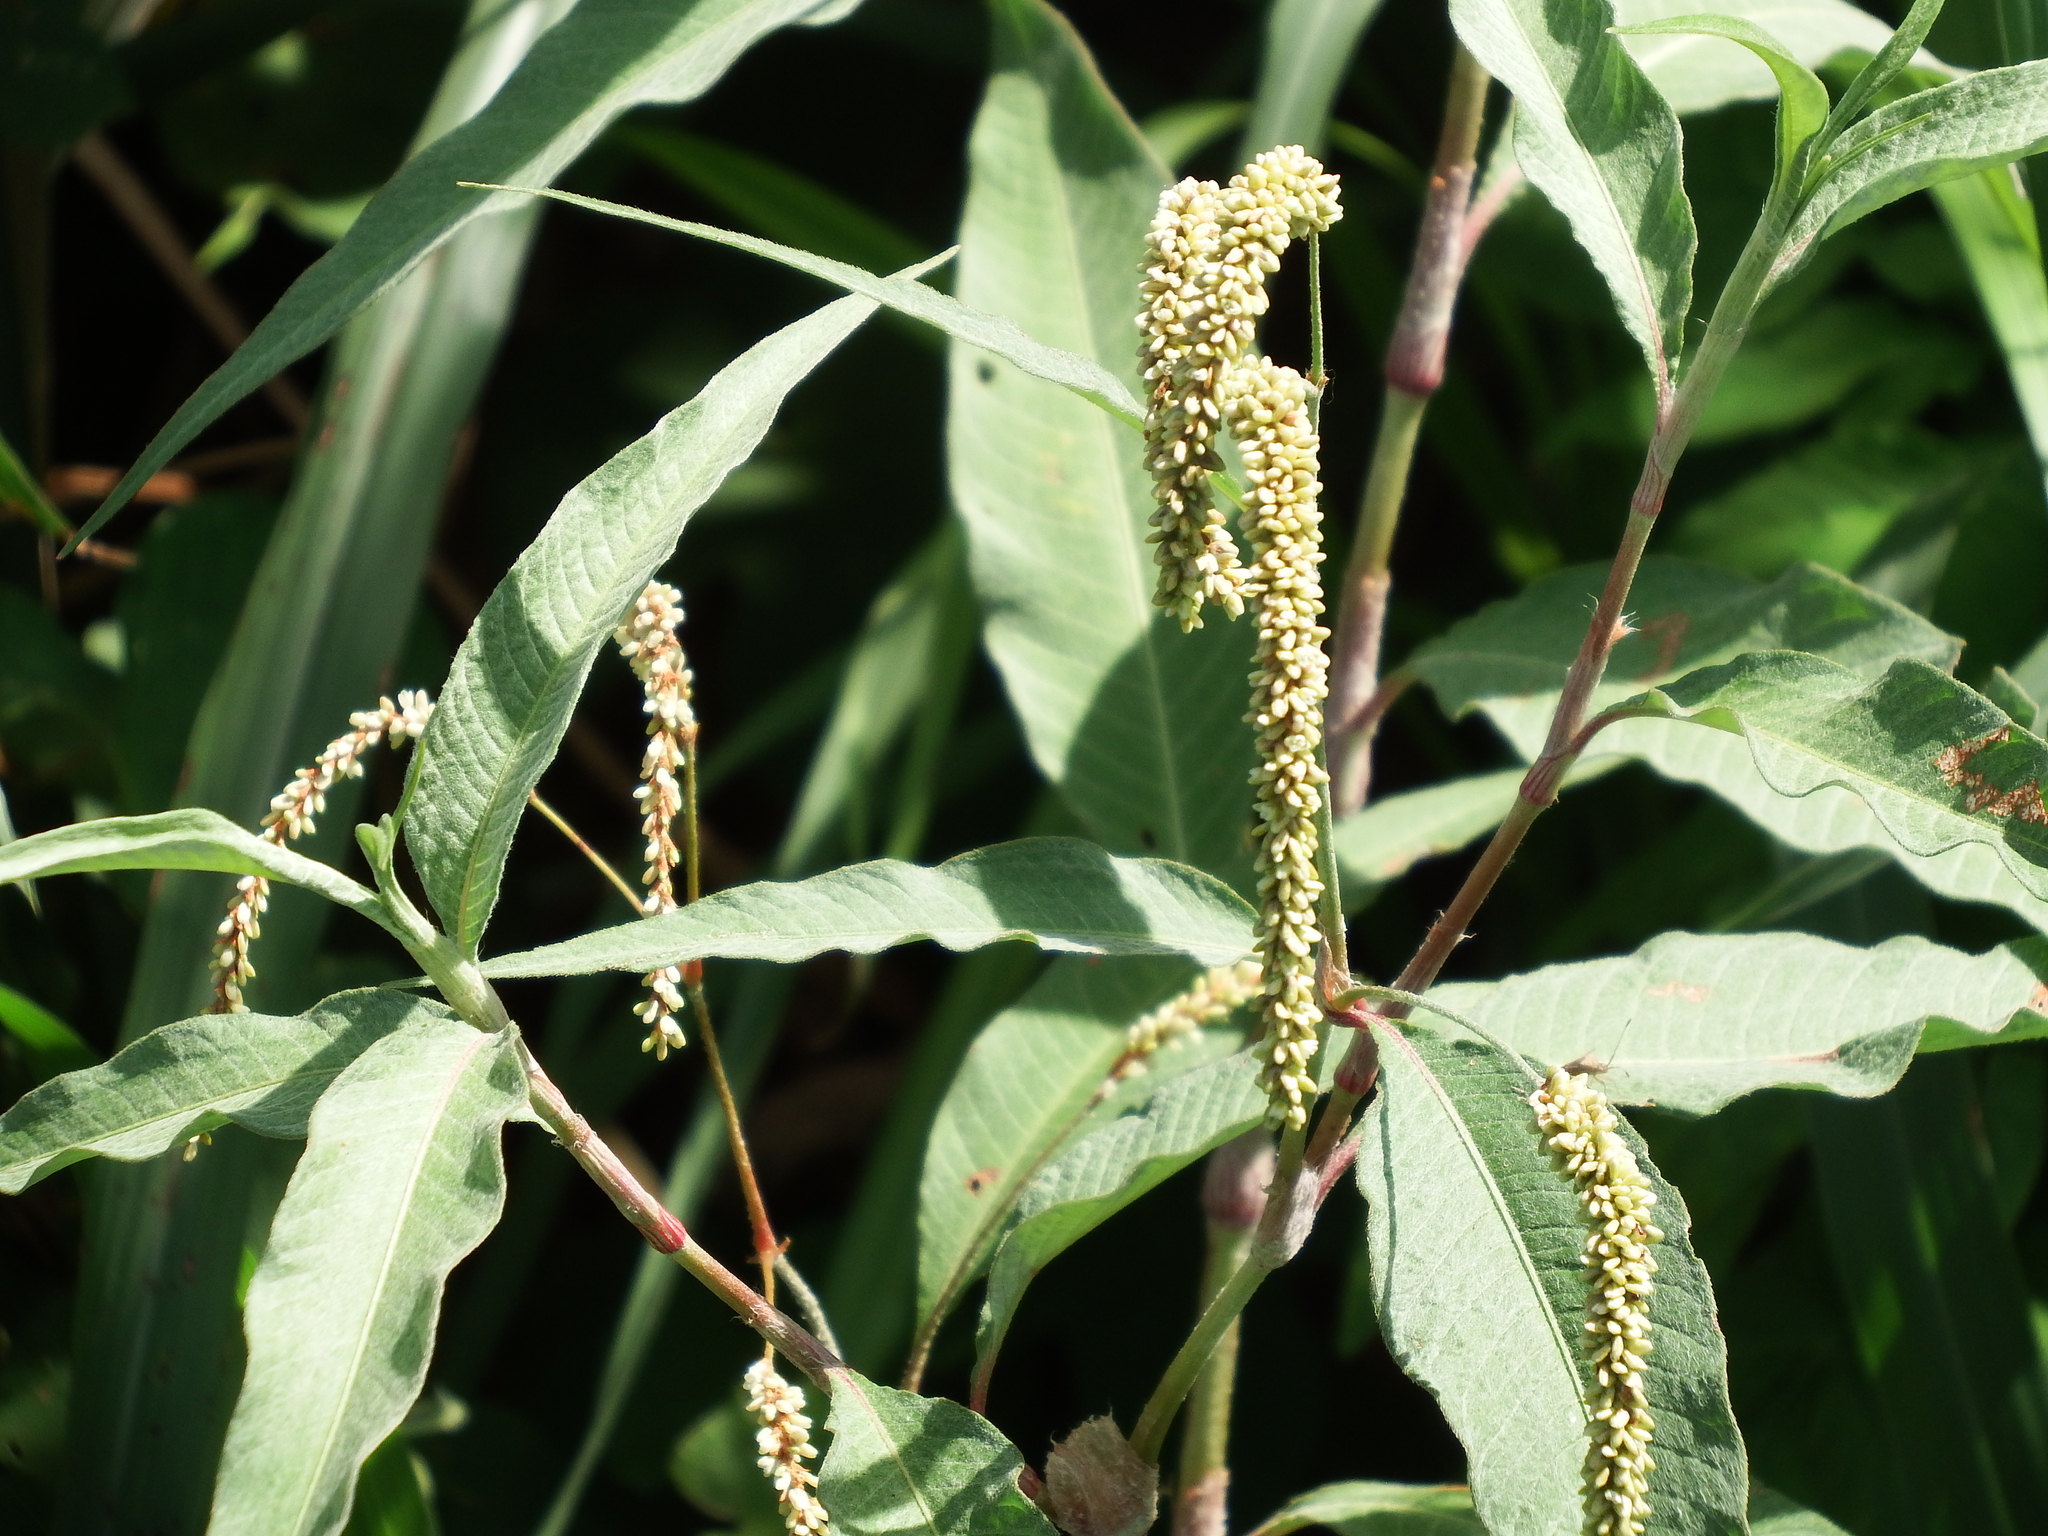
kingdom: Plantae
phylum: Tracheophyta
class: Magnoliopsida
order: Caryophyllales
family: Polygonaceae
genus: Persicaria
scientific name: Persicaria lanata
